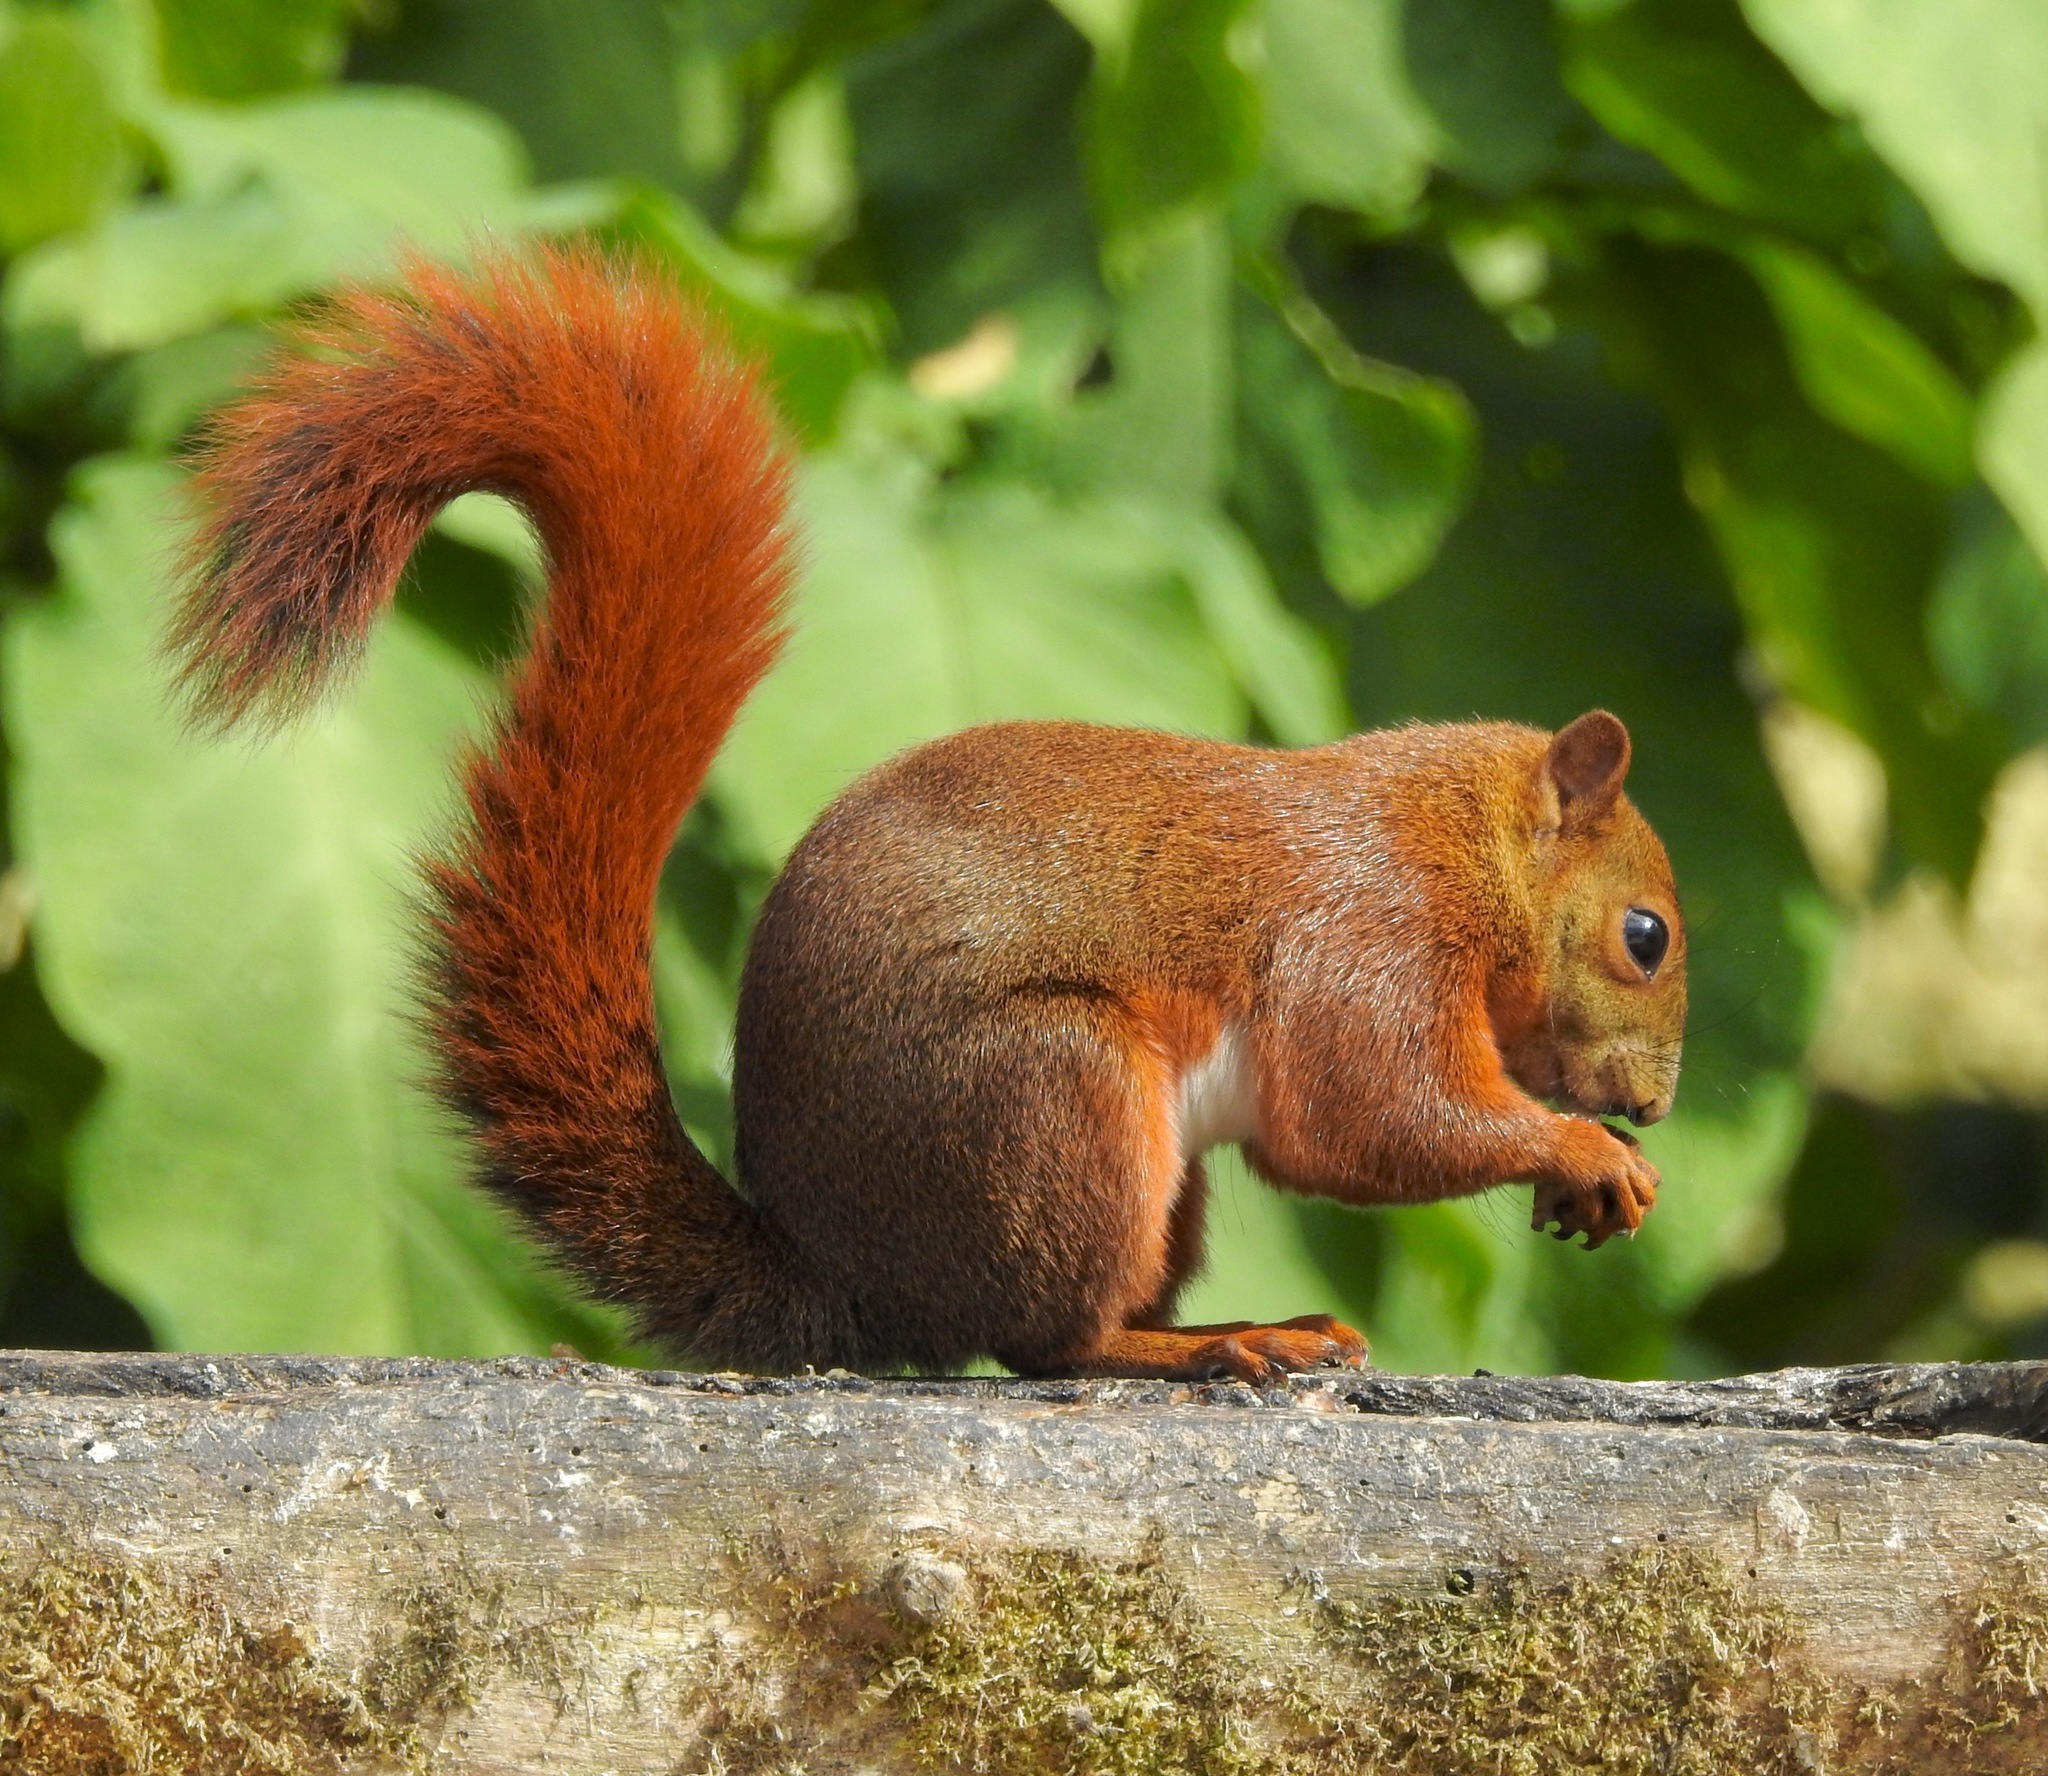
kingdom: Animalia
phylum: Chordata
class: Mammalia
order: Rodentia
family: Sciuridae
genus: Sciurus
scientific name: Sciurus granatensis
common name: Red-tailed squirrel
